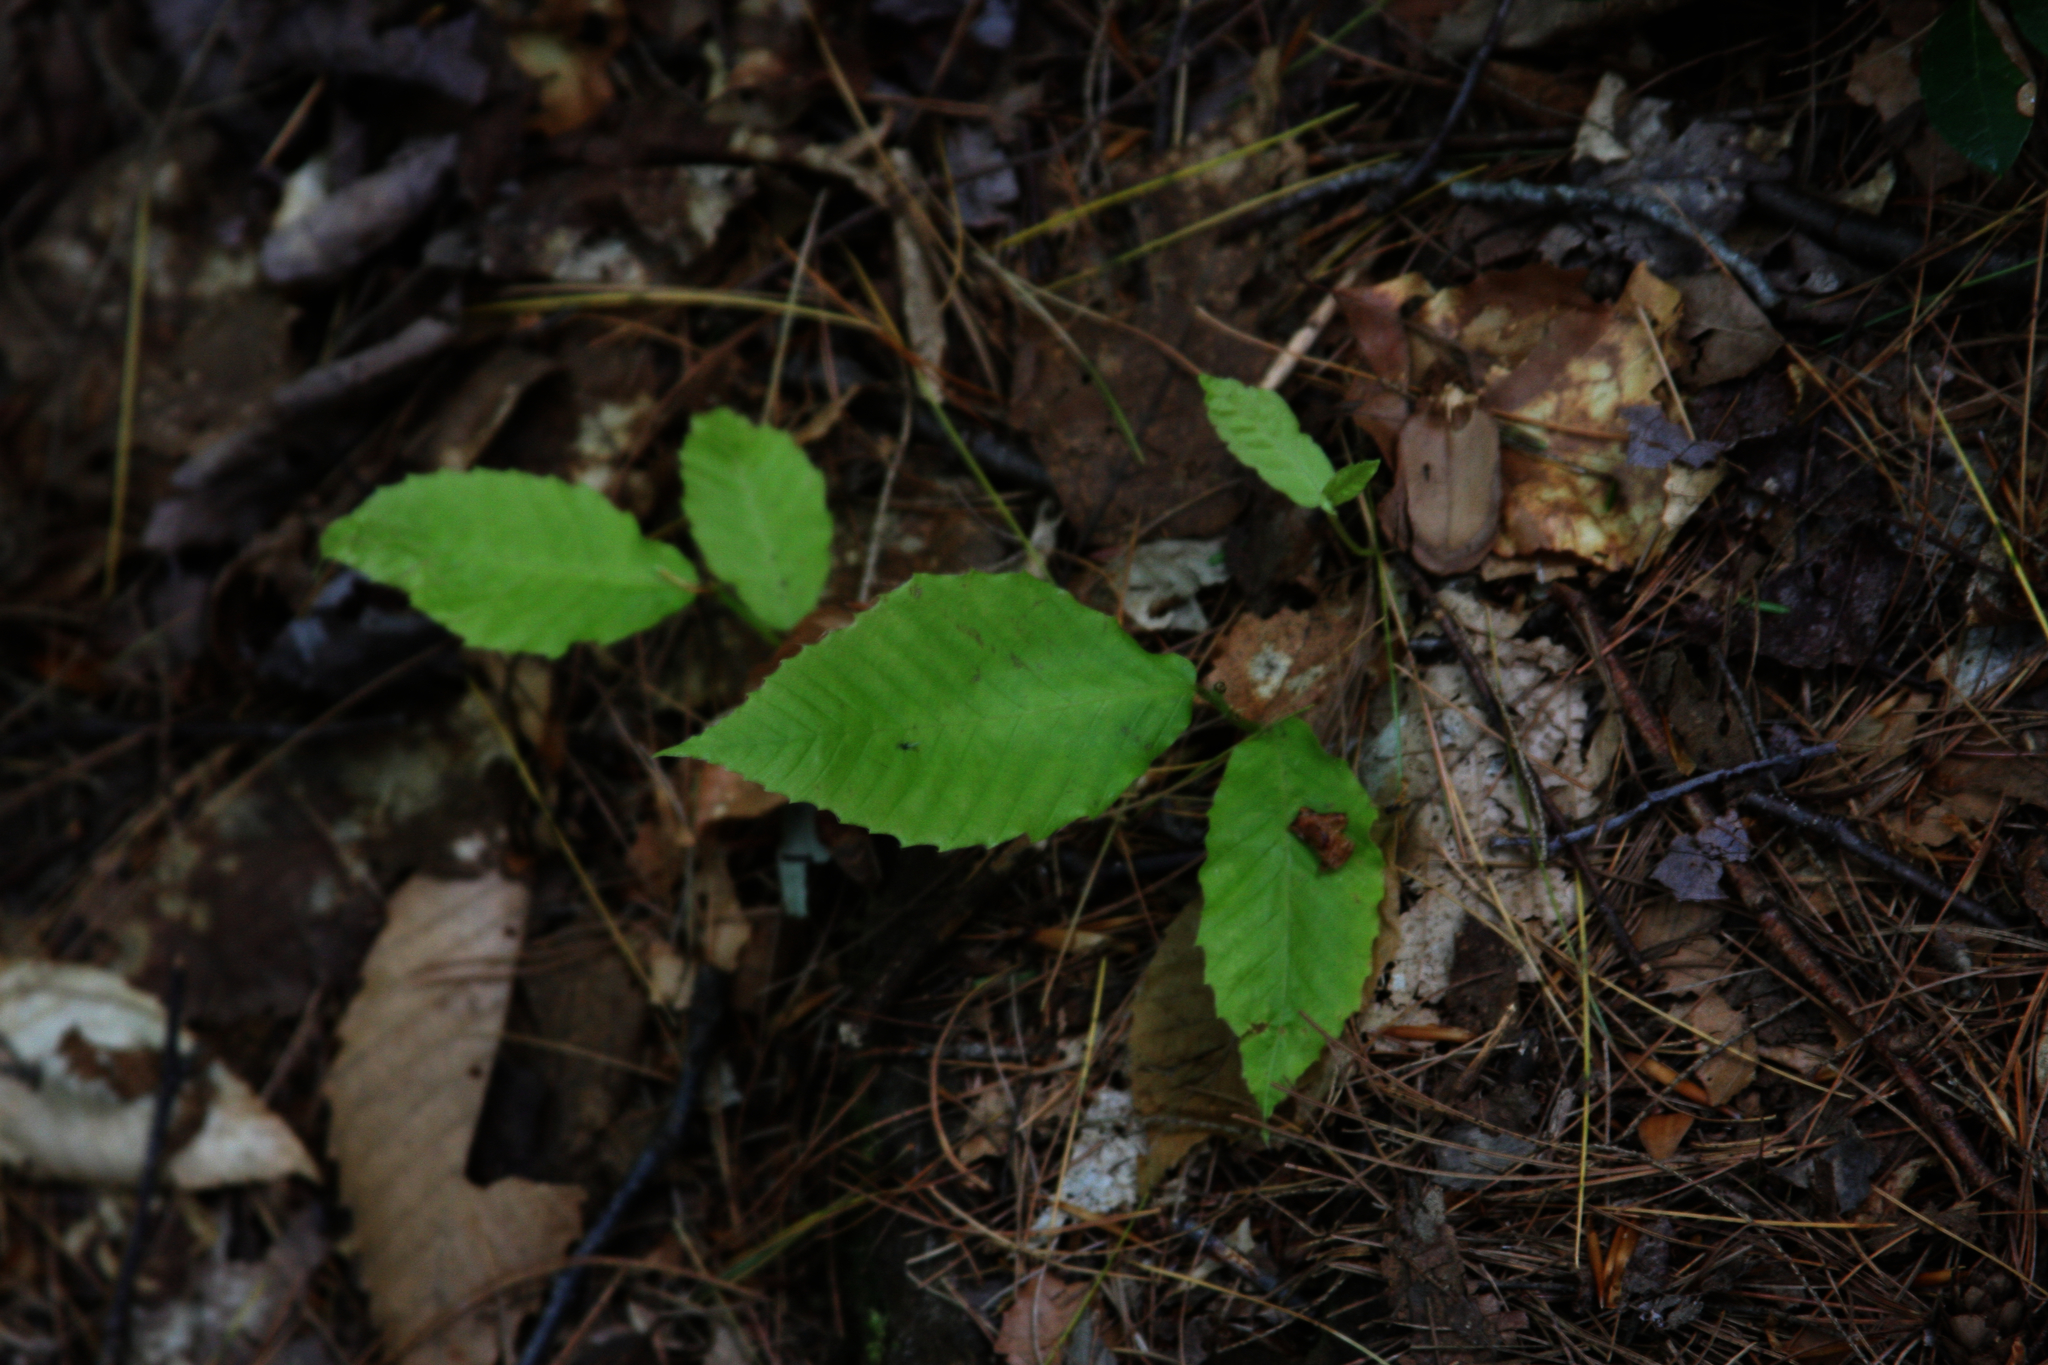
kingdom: Plantae
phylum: Tracheophyta
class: Magnoliopsida
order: Fagales
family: Fagaceae
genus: Fagus
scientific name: Fagus grandifolia
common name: American beech
